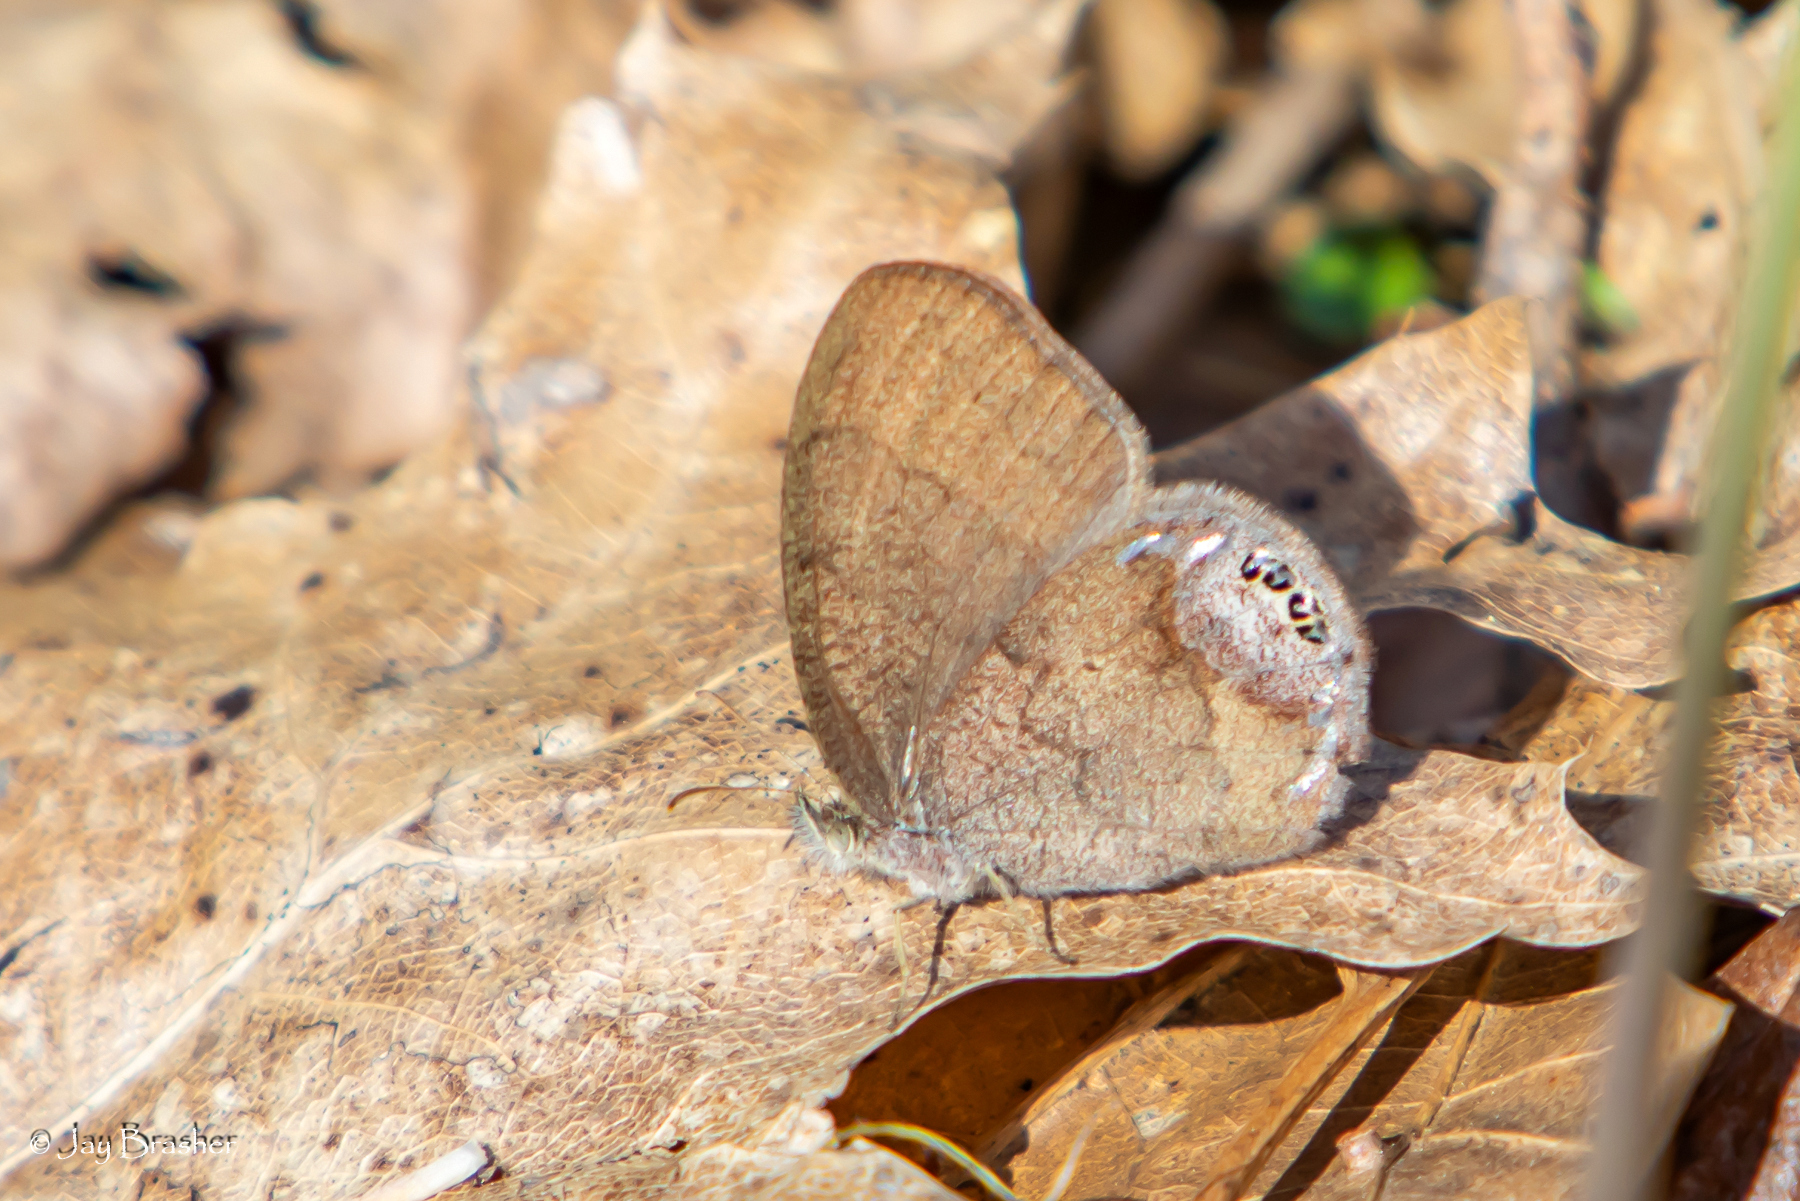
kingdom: Animalia
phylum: Arthropoda
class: Insecta
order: Lepidoptera
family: Nymphalidae
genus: Euptychia
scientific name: Euptychia cornelius
